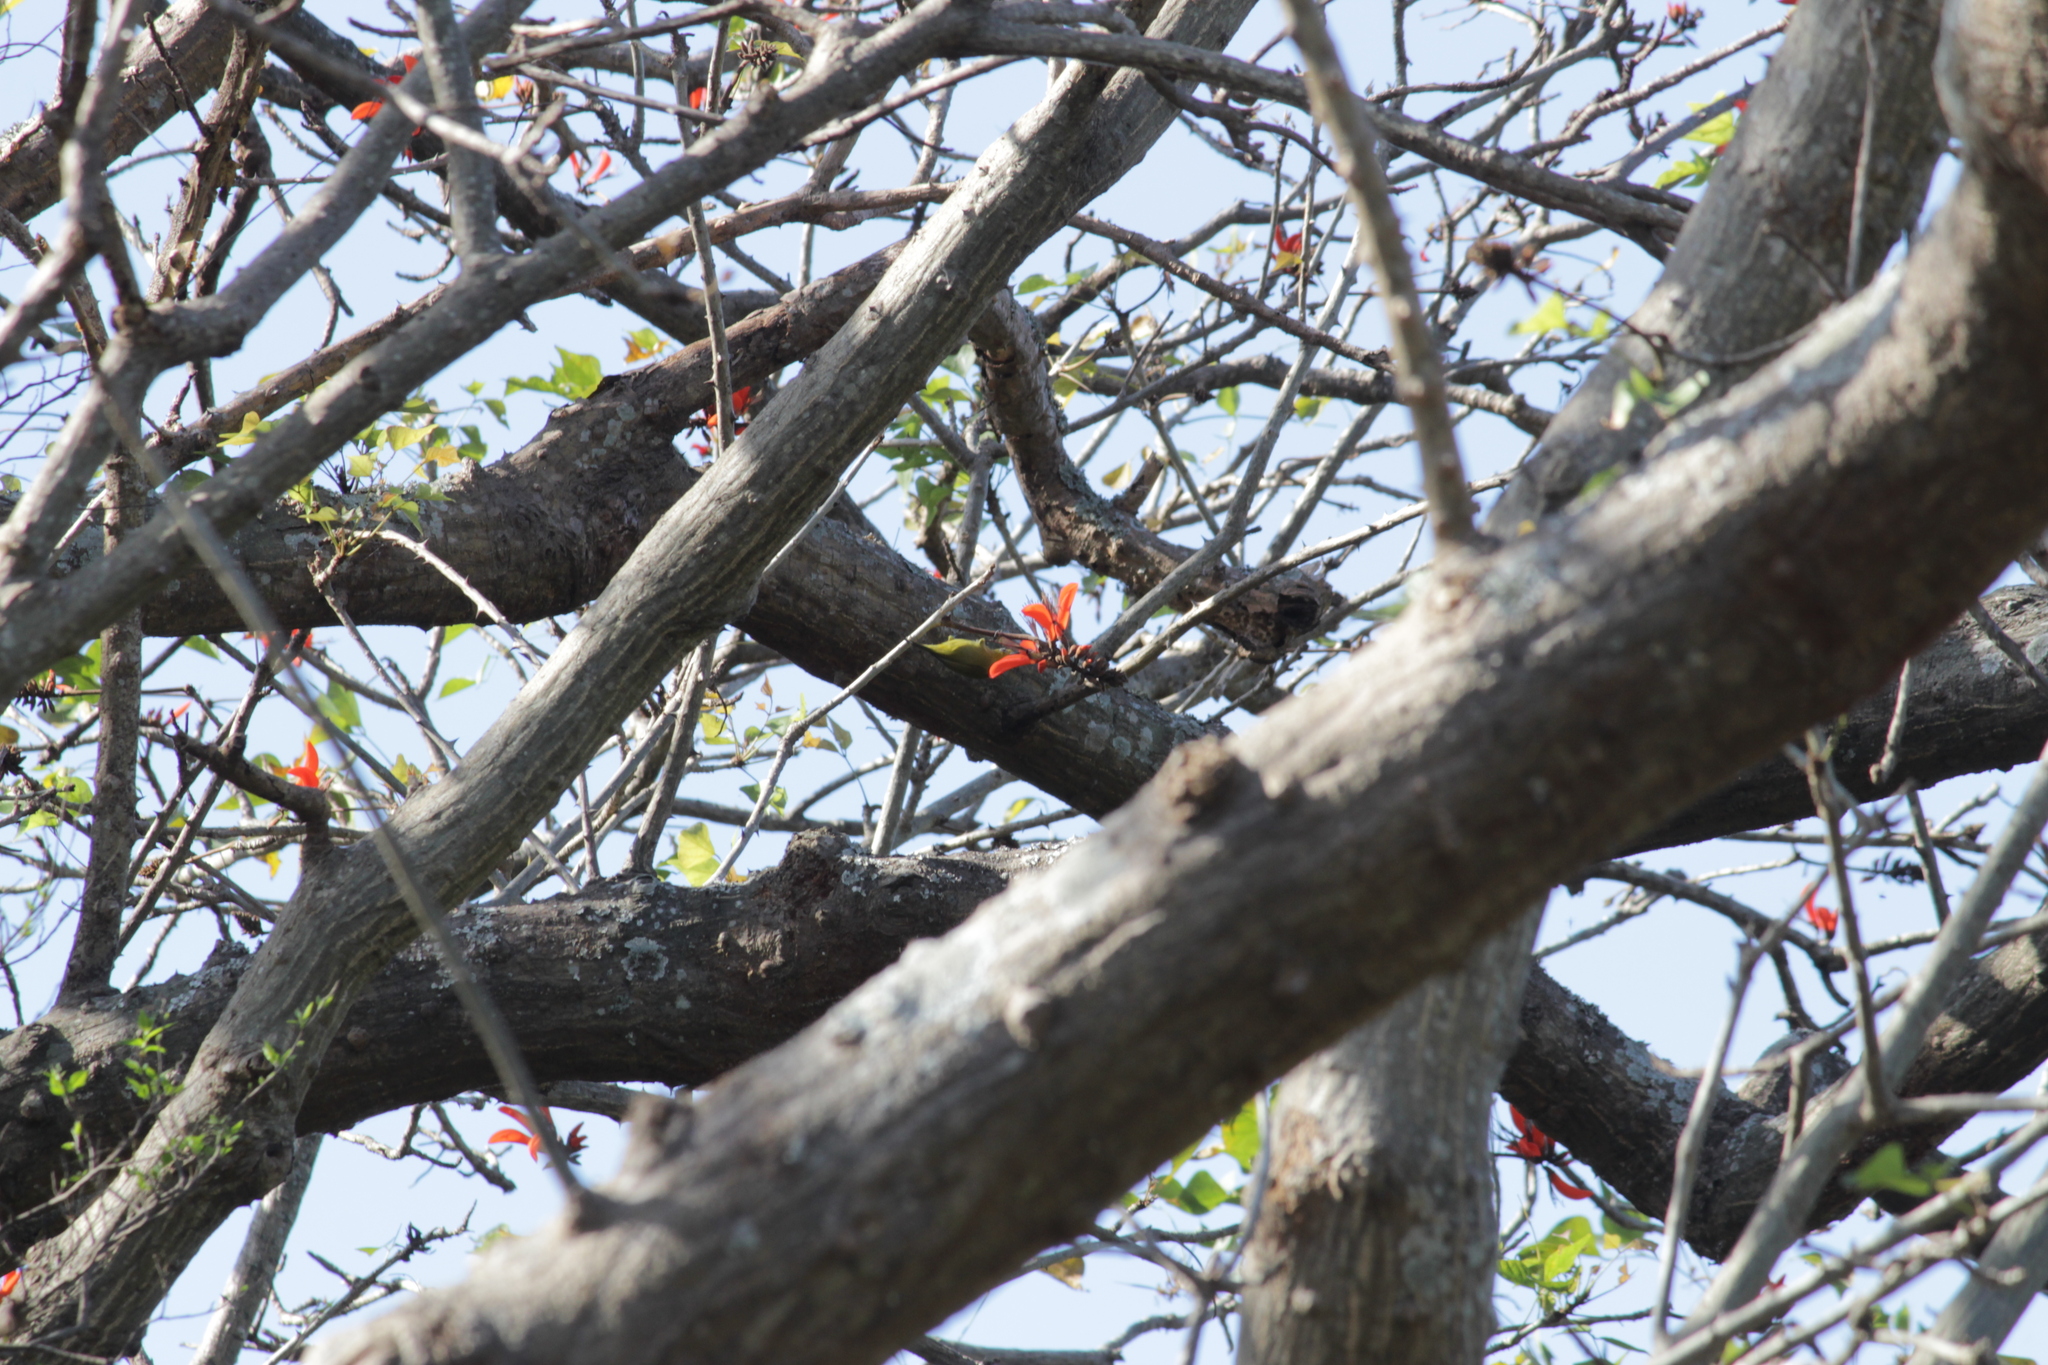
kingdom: Animalia
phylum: Chordata
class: Aves
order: Passeriformes
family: Zosteropidae
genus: Zosterops
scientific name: Zosterops virens
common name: Cape white-eye
